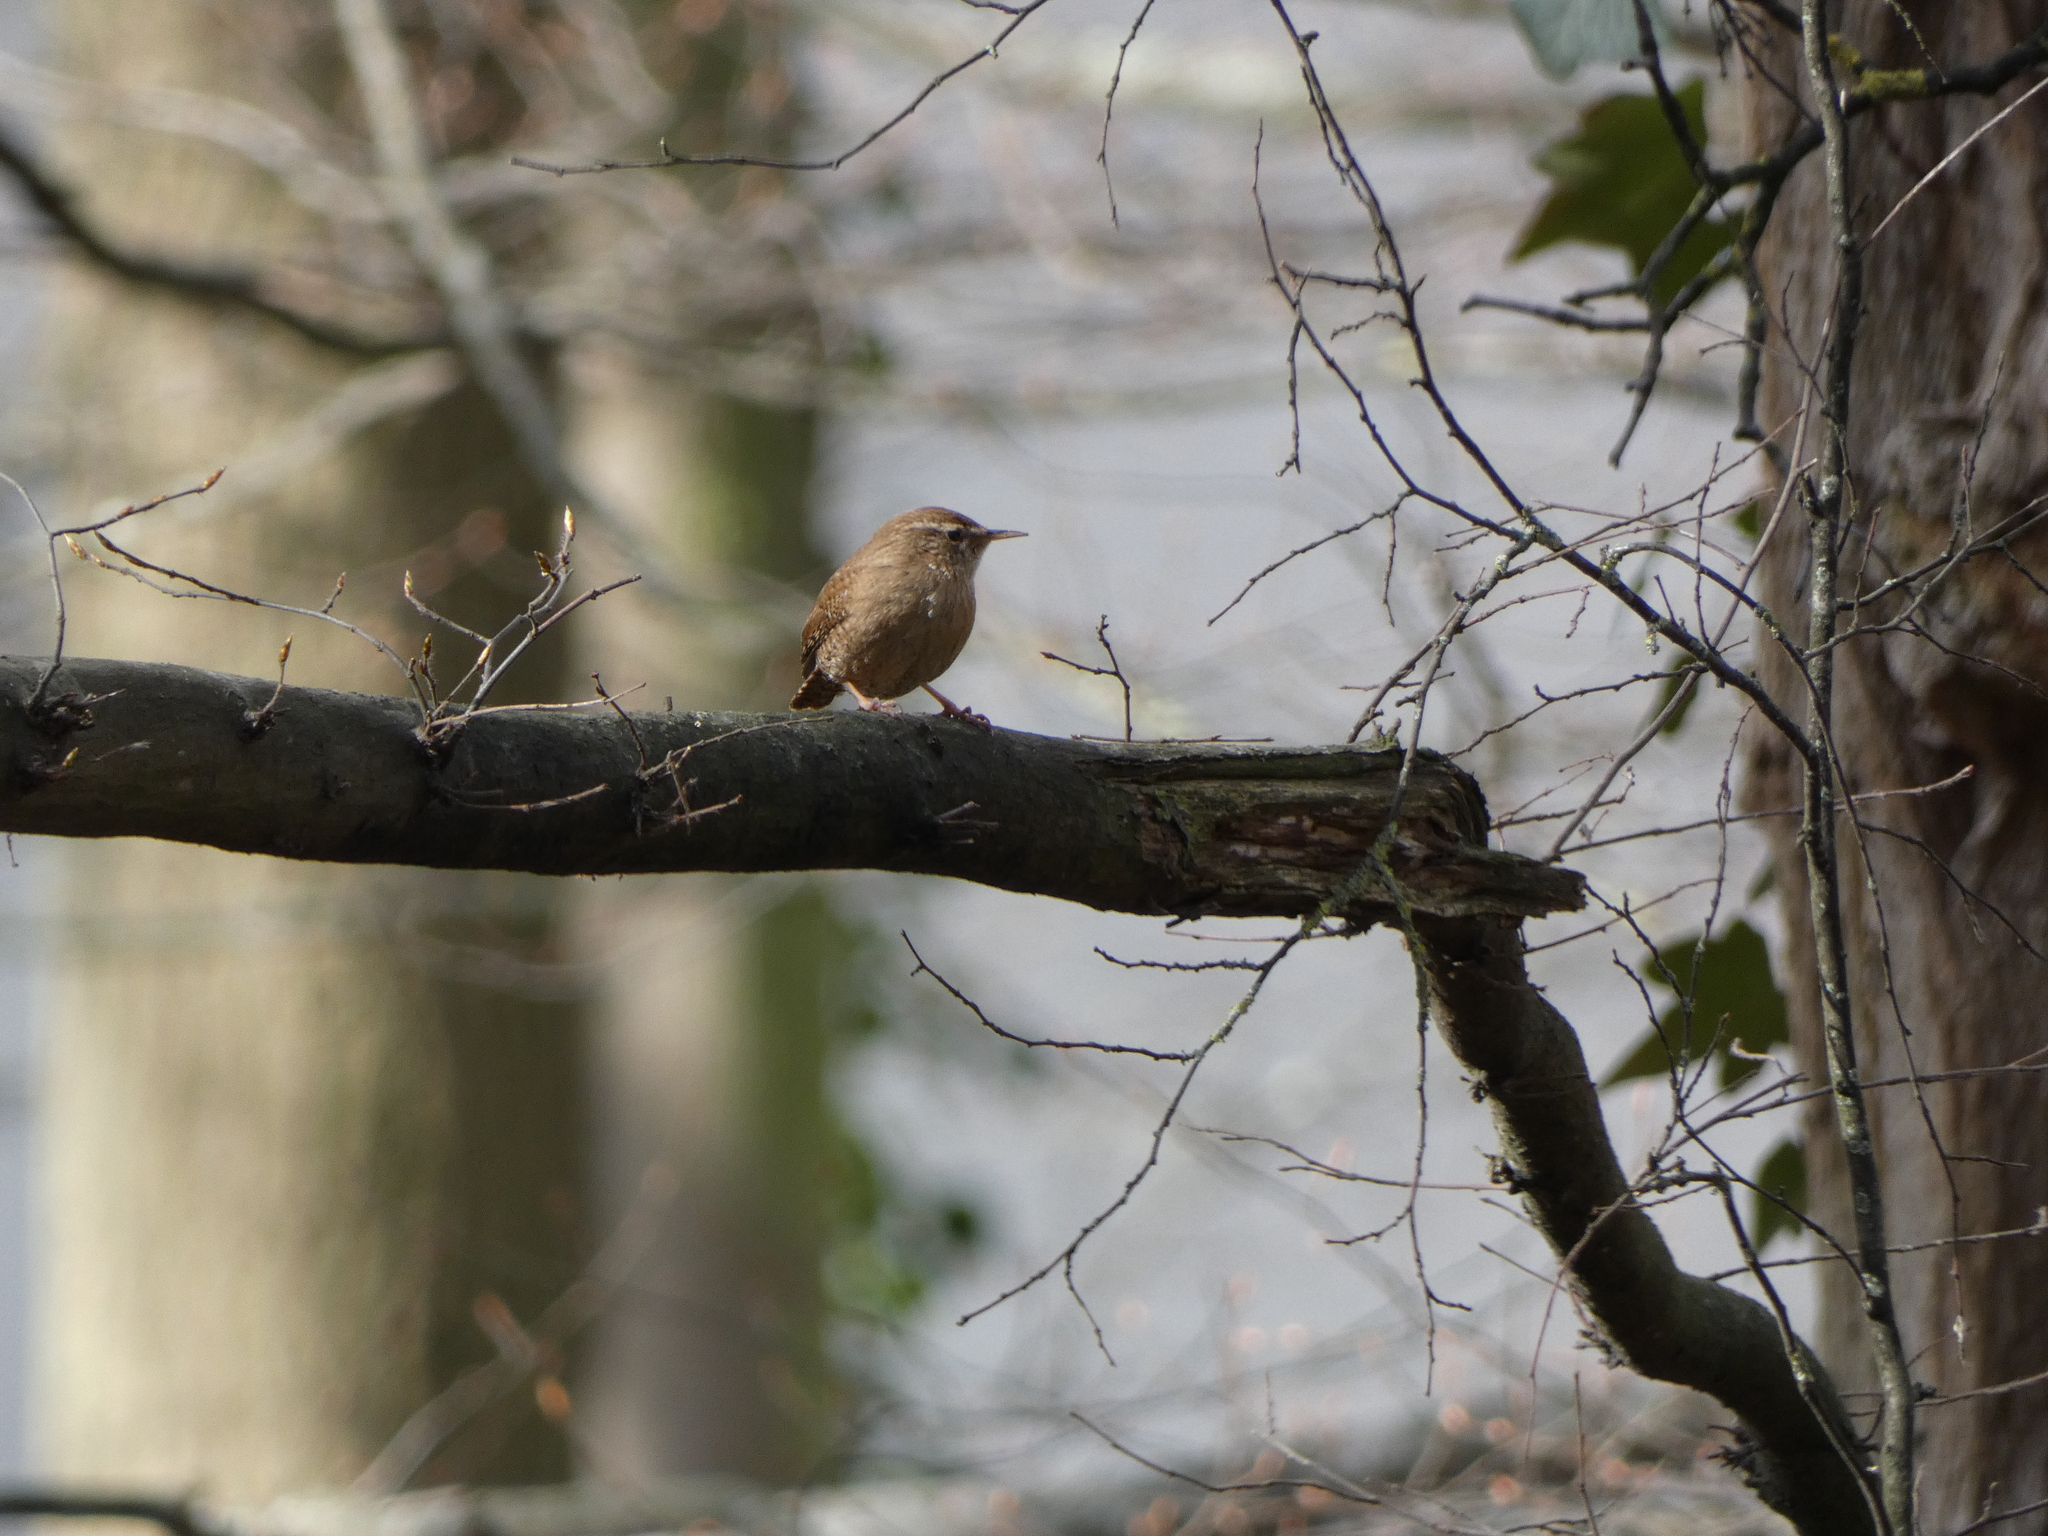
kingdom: Animalia
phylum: Chordata
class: Aves
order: Passeriformes
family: Troglodytidae
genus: Troglodytes
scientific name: Troglodytes troglodytes
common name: Eurasian wren
